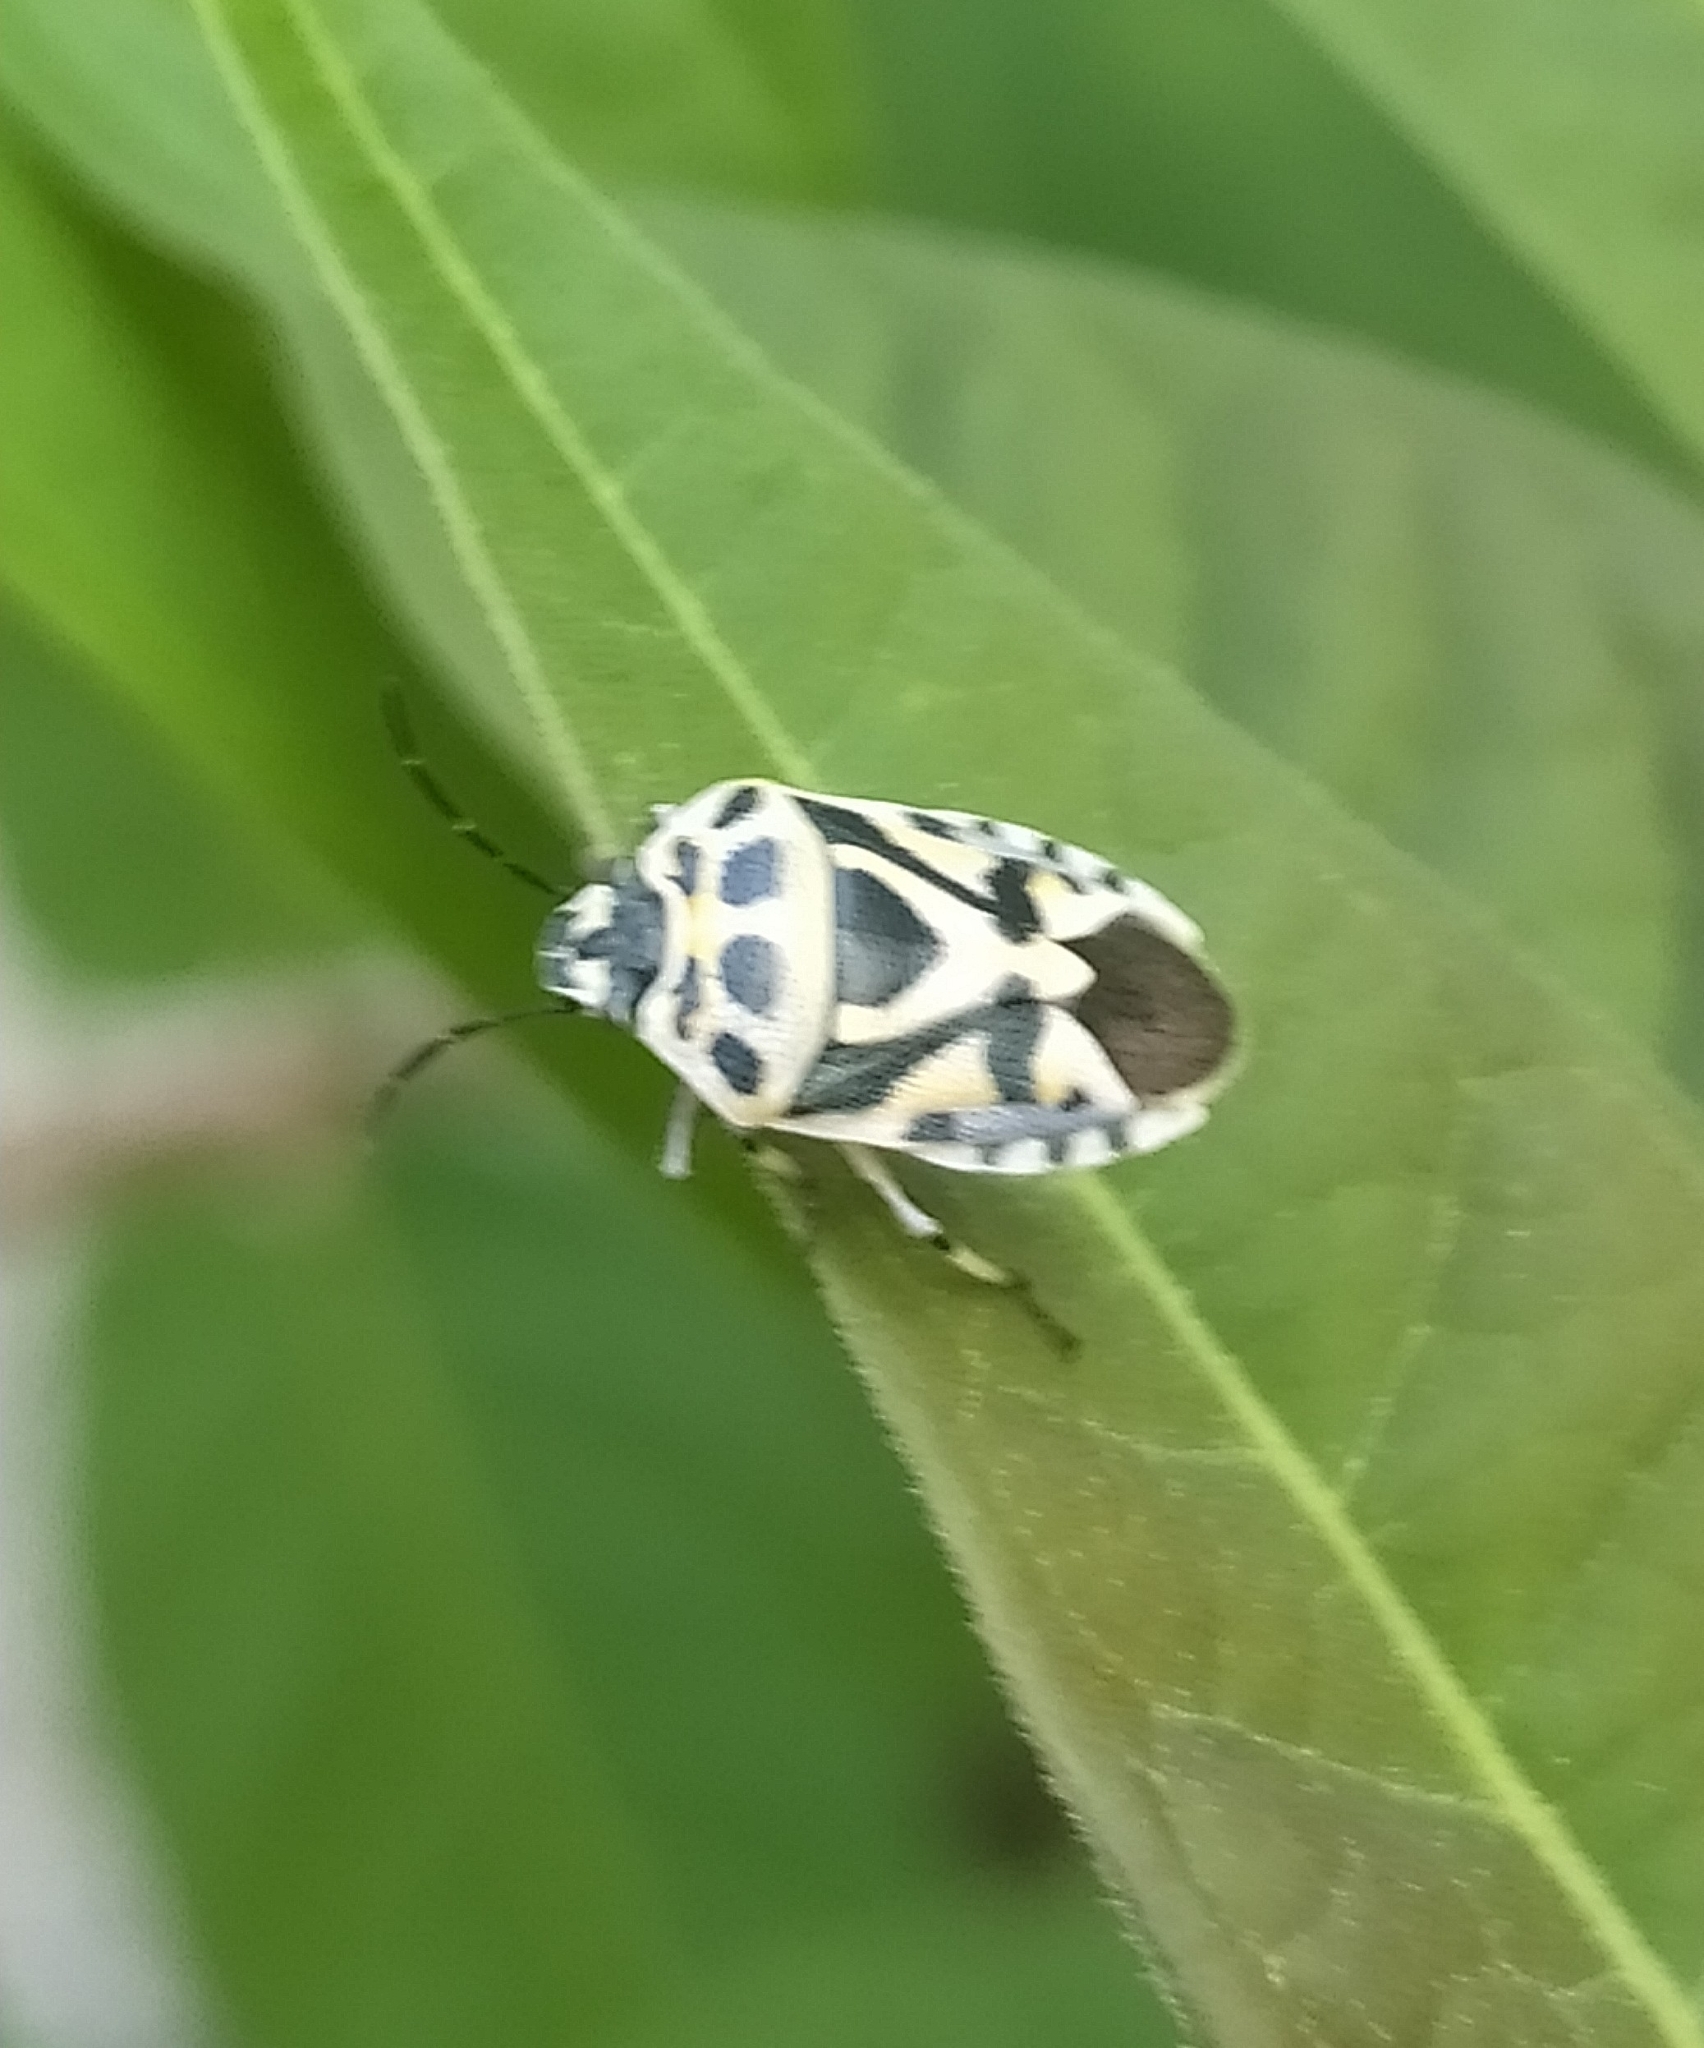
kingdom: Animalia
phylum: Arthropoda
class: Insecta
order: Hemiptera
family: Pentatomidae
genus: Eurydema
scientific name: Eurydema ornata
